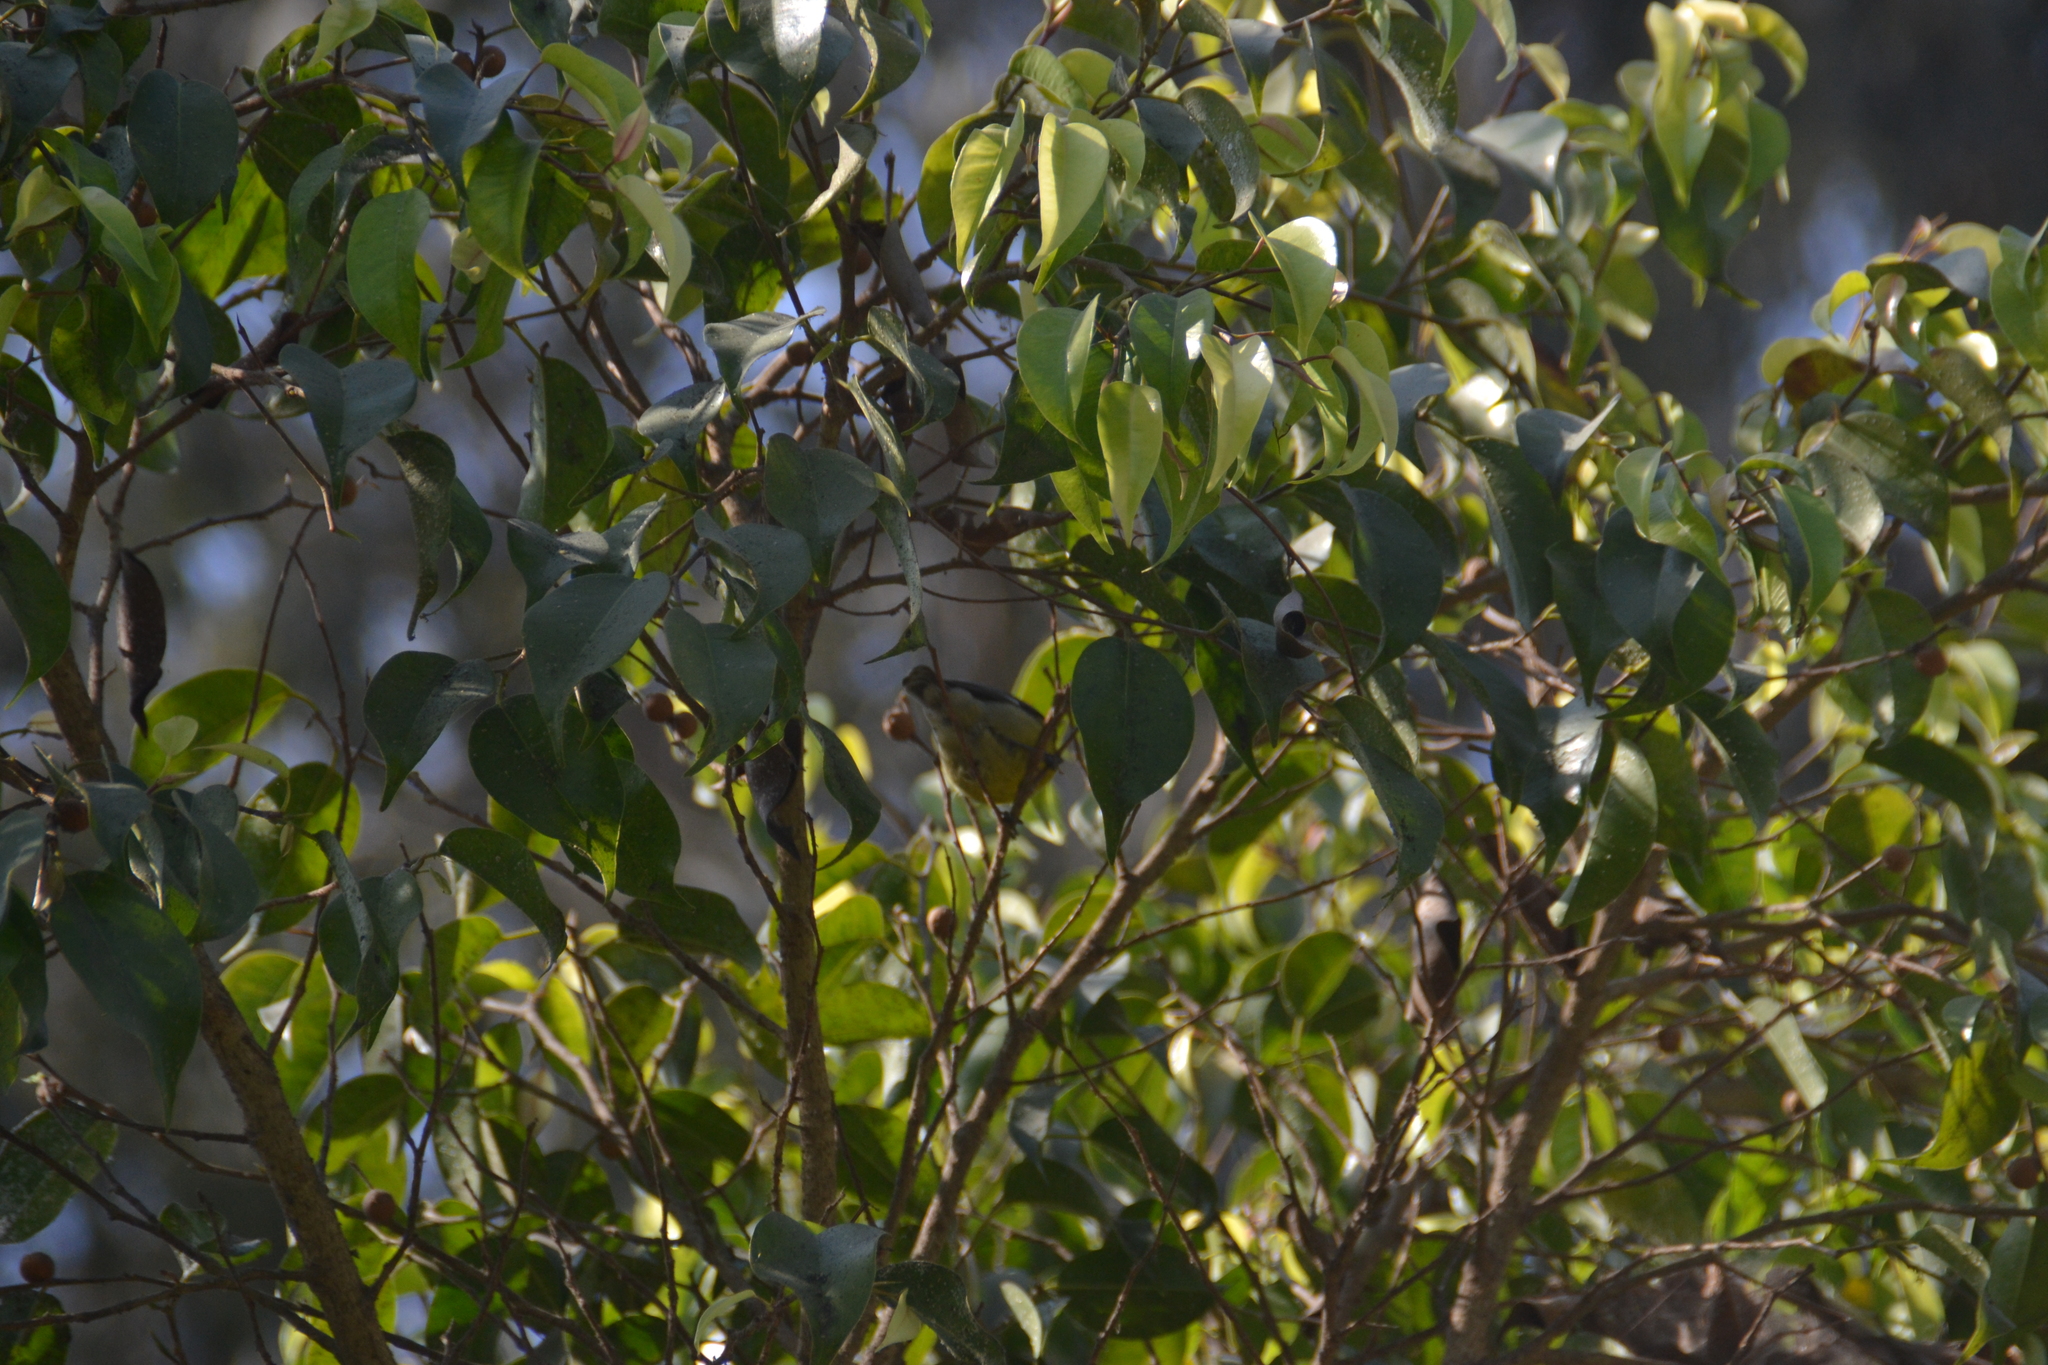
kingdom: Animalia
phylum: Chordata
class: Aves
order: Passeriformes
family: Thraupidae
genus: Coereba
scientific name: Coereba flaveola
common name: Bananaquit
